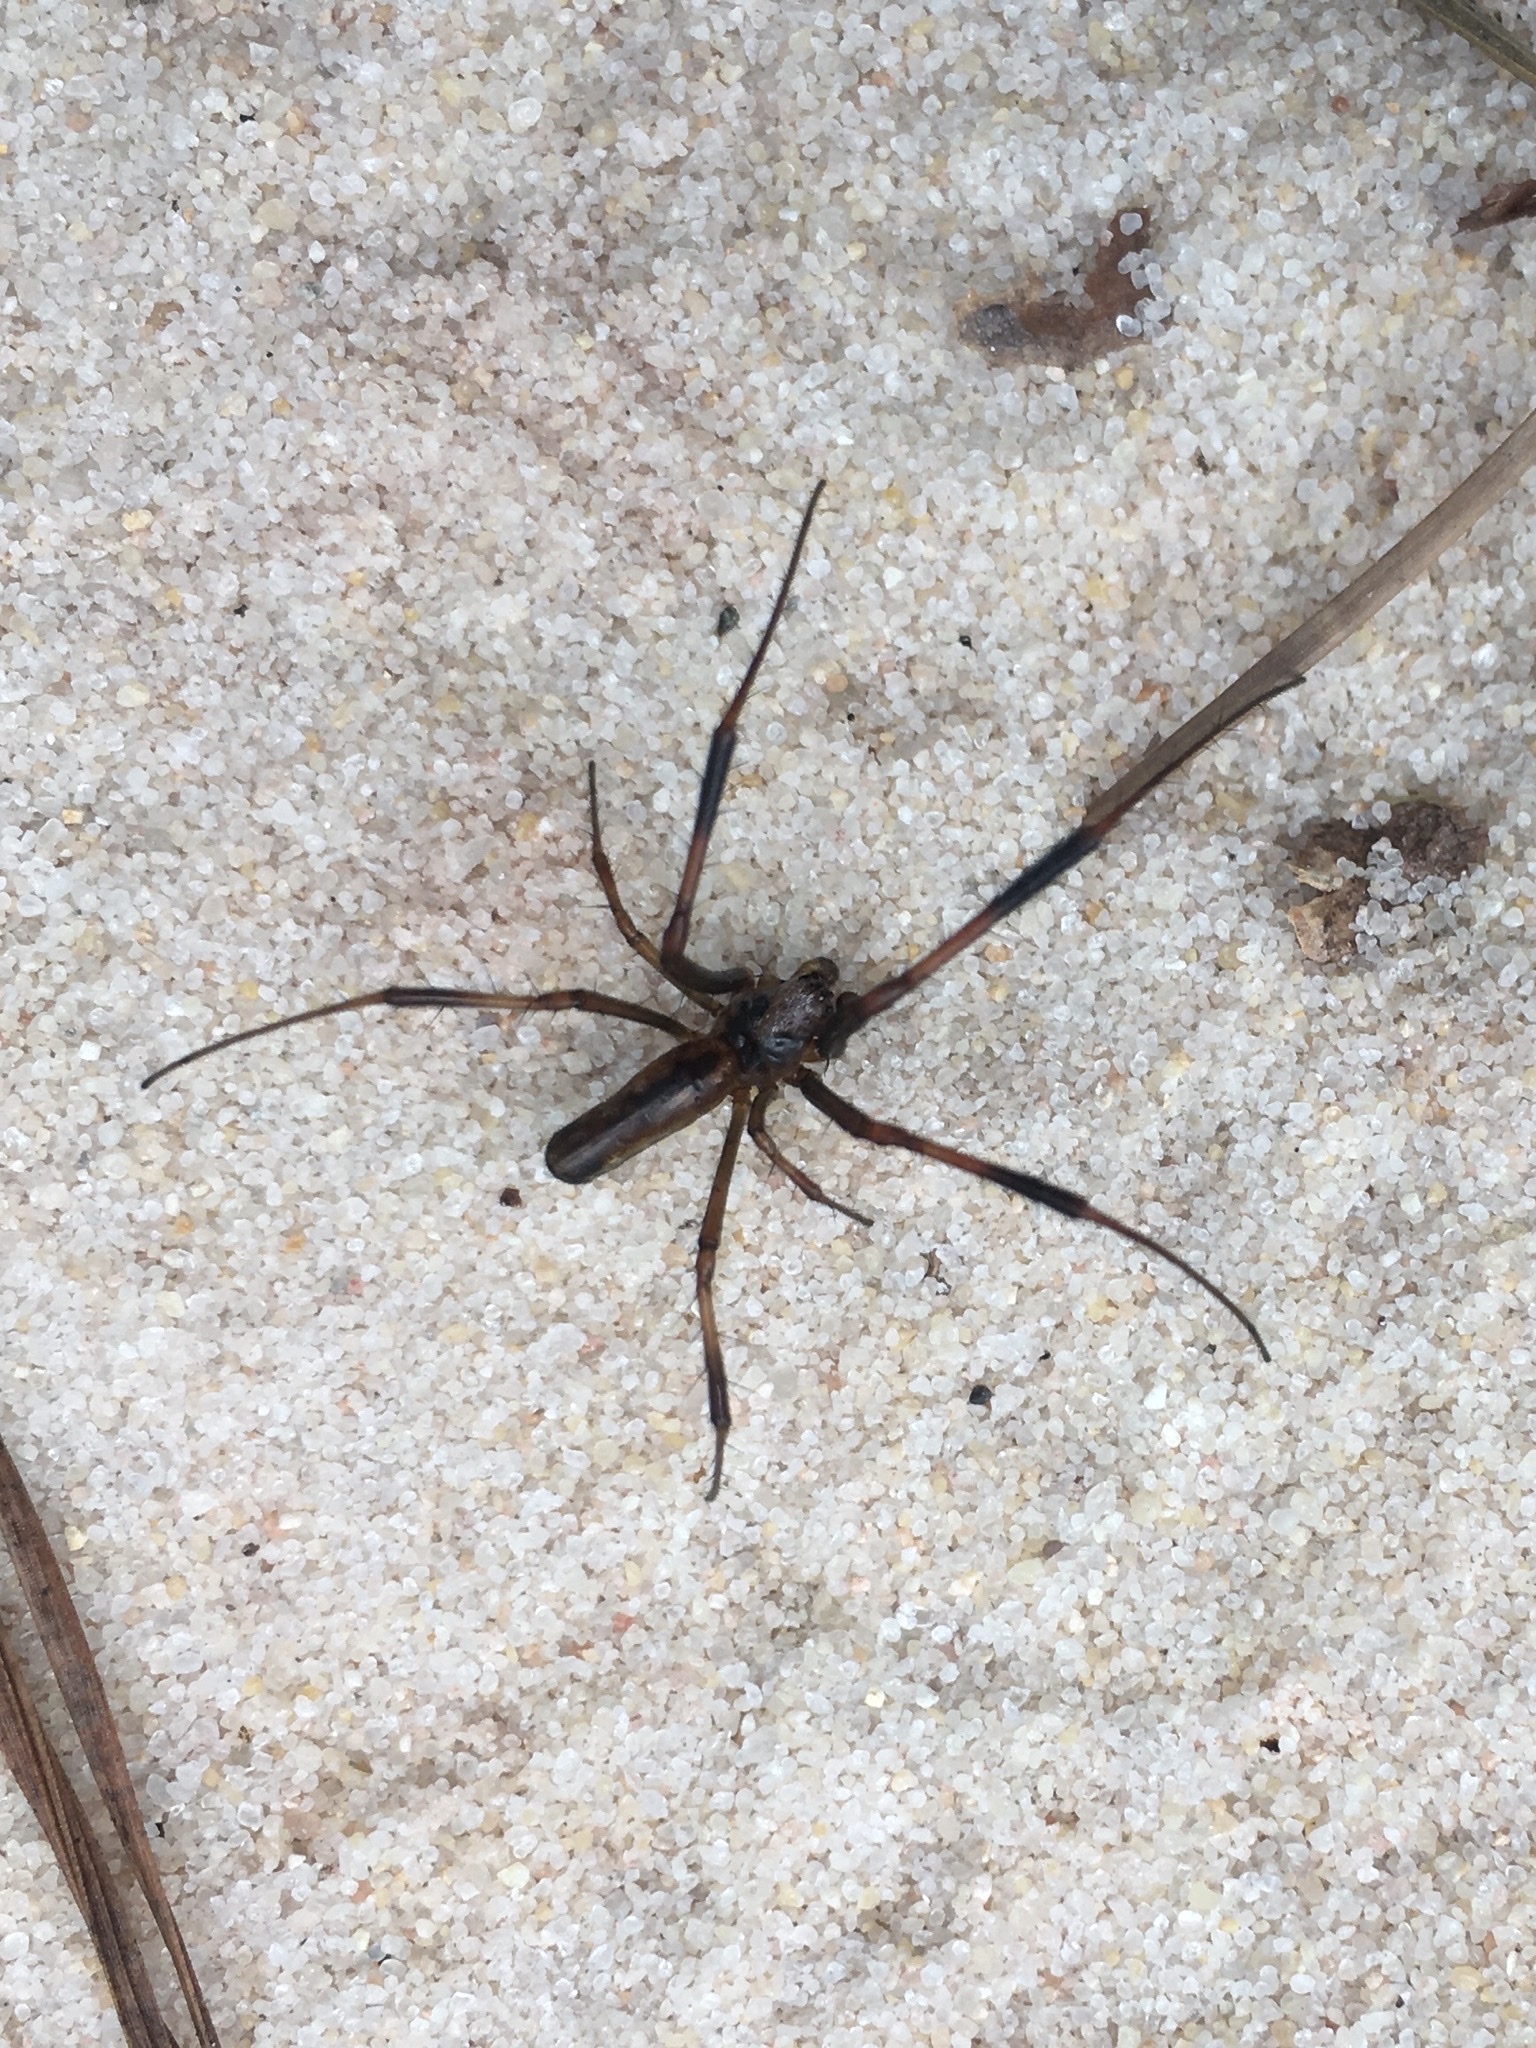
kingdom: Animalia
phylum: Arthropoda
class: Arachnida
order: Araneae
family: Araneidae
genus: Trichonephila
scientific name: Trichonephila clavipes
